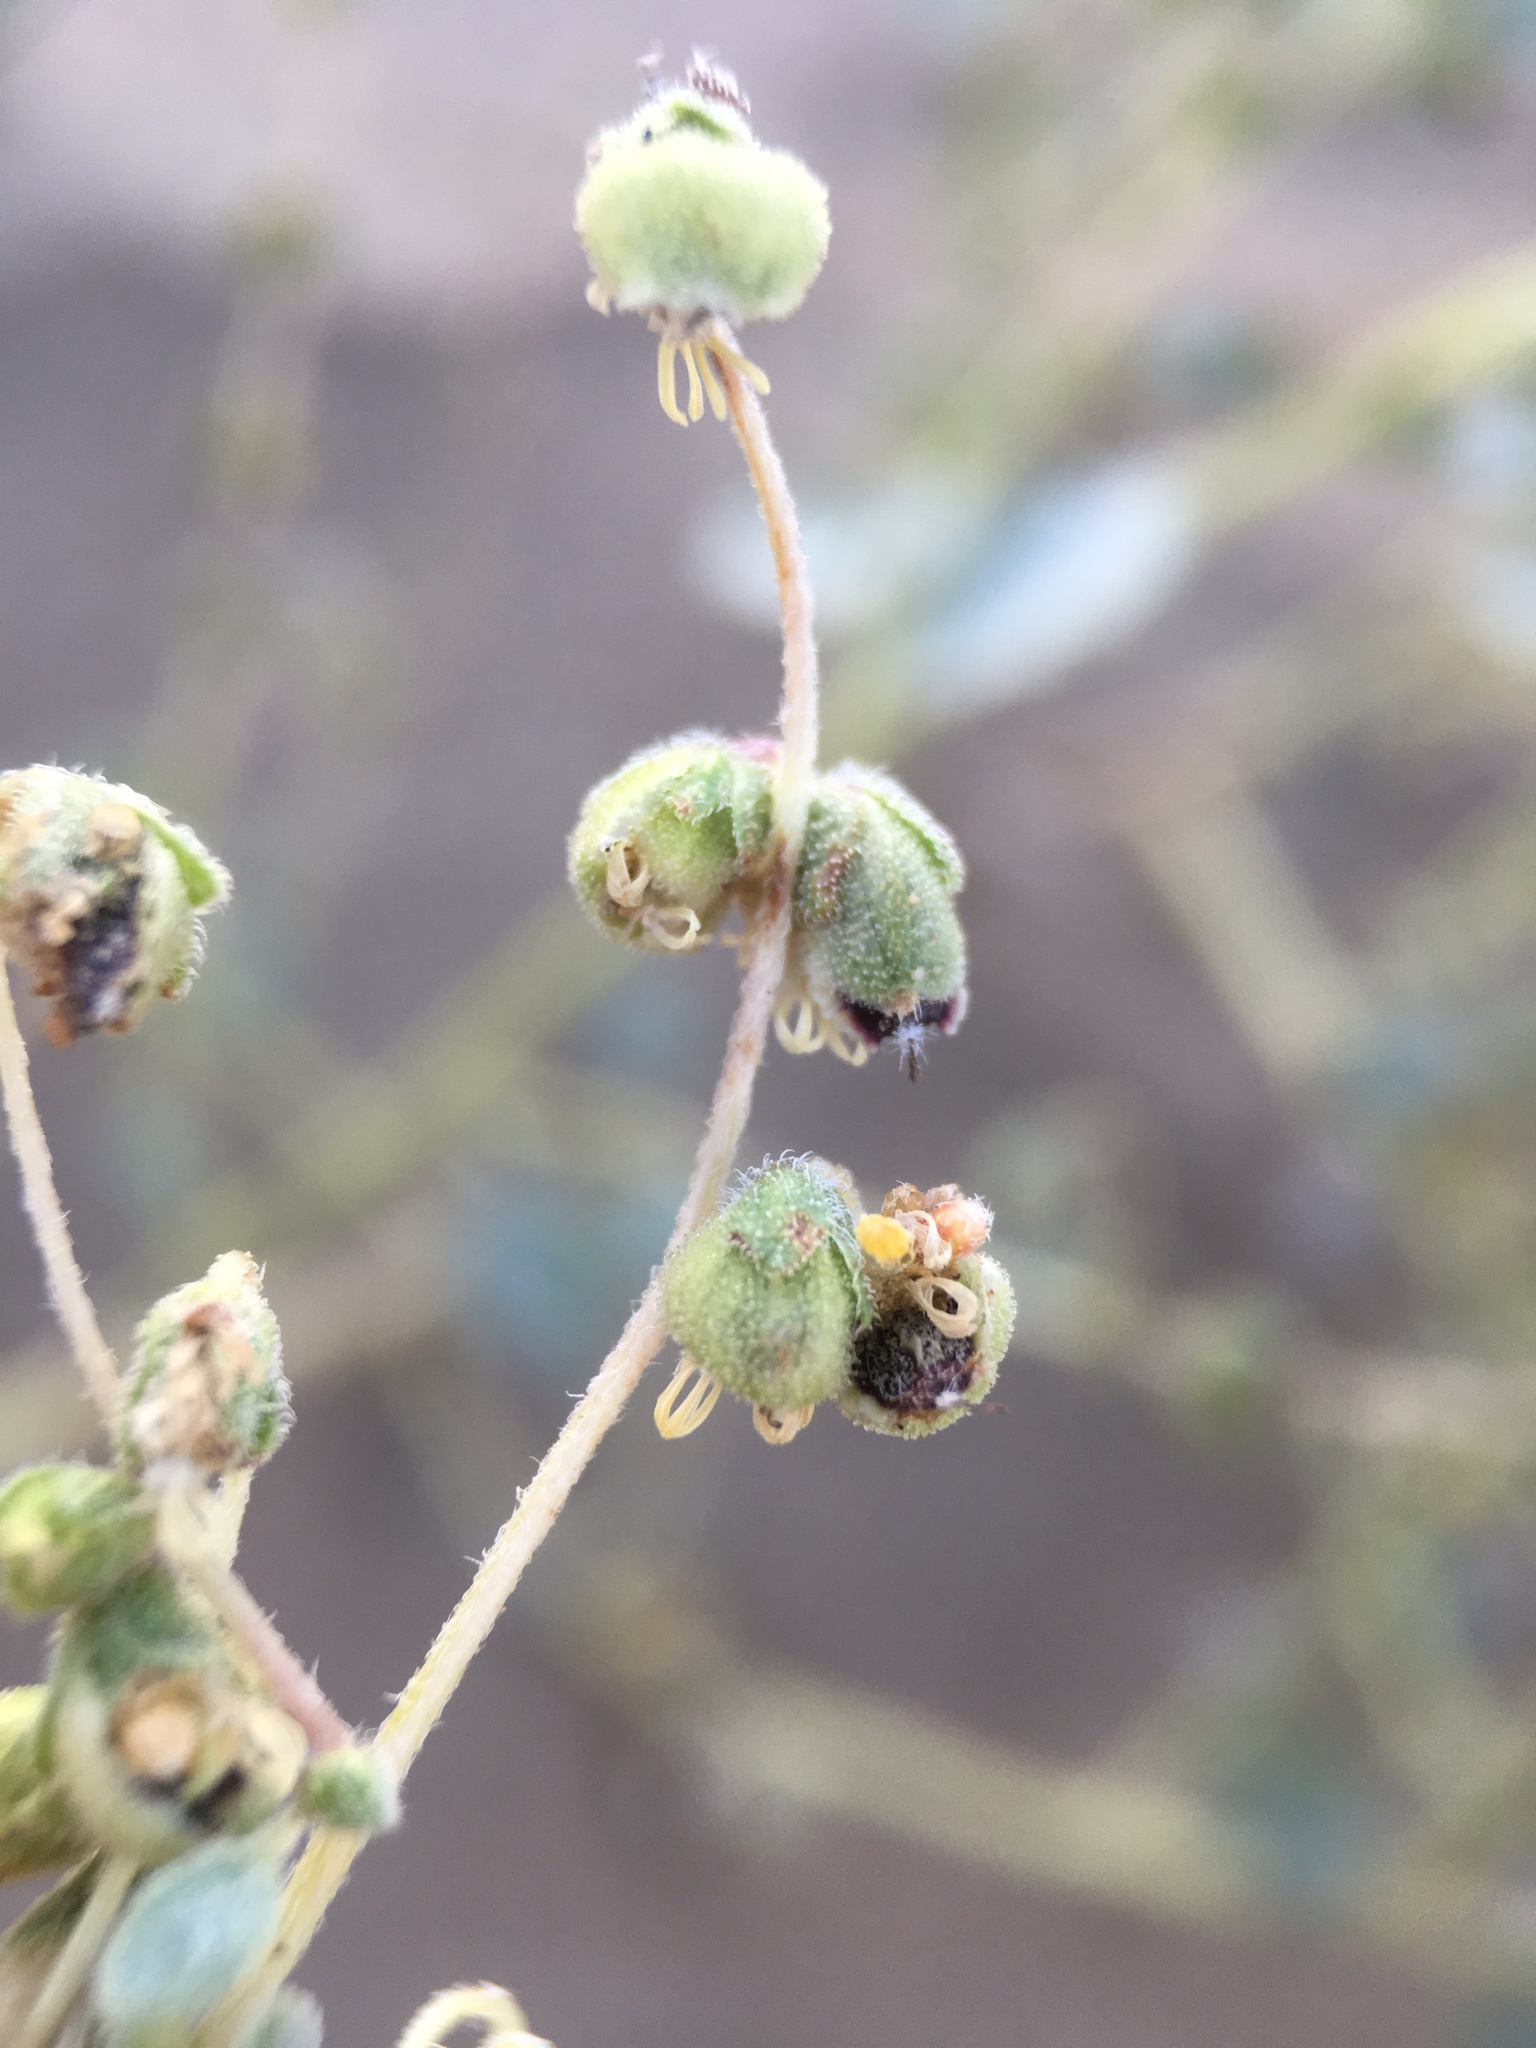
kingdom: Plantae
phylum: Tracheophyta
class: Magnoliopsida
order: Asterales
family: Asteraceae
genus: Dicoria
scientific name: Dicoria canescens
